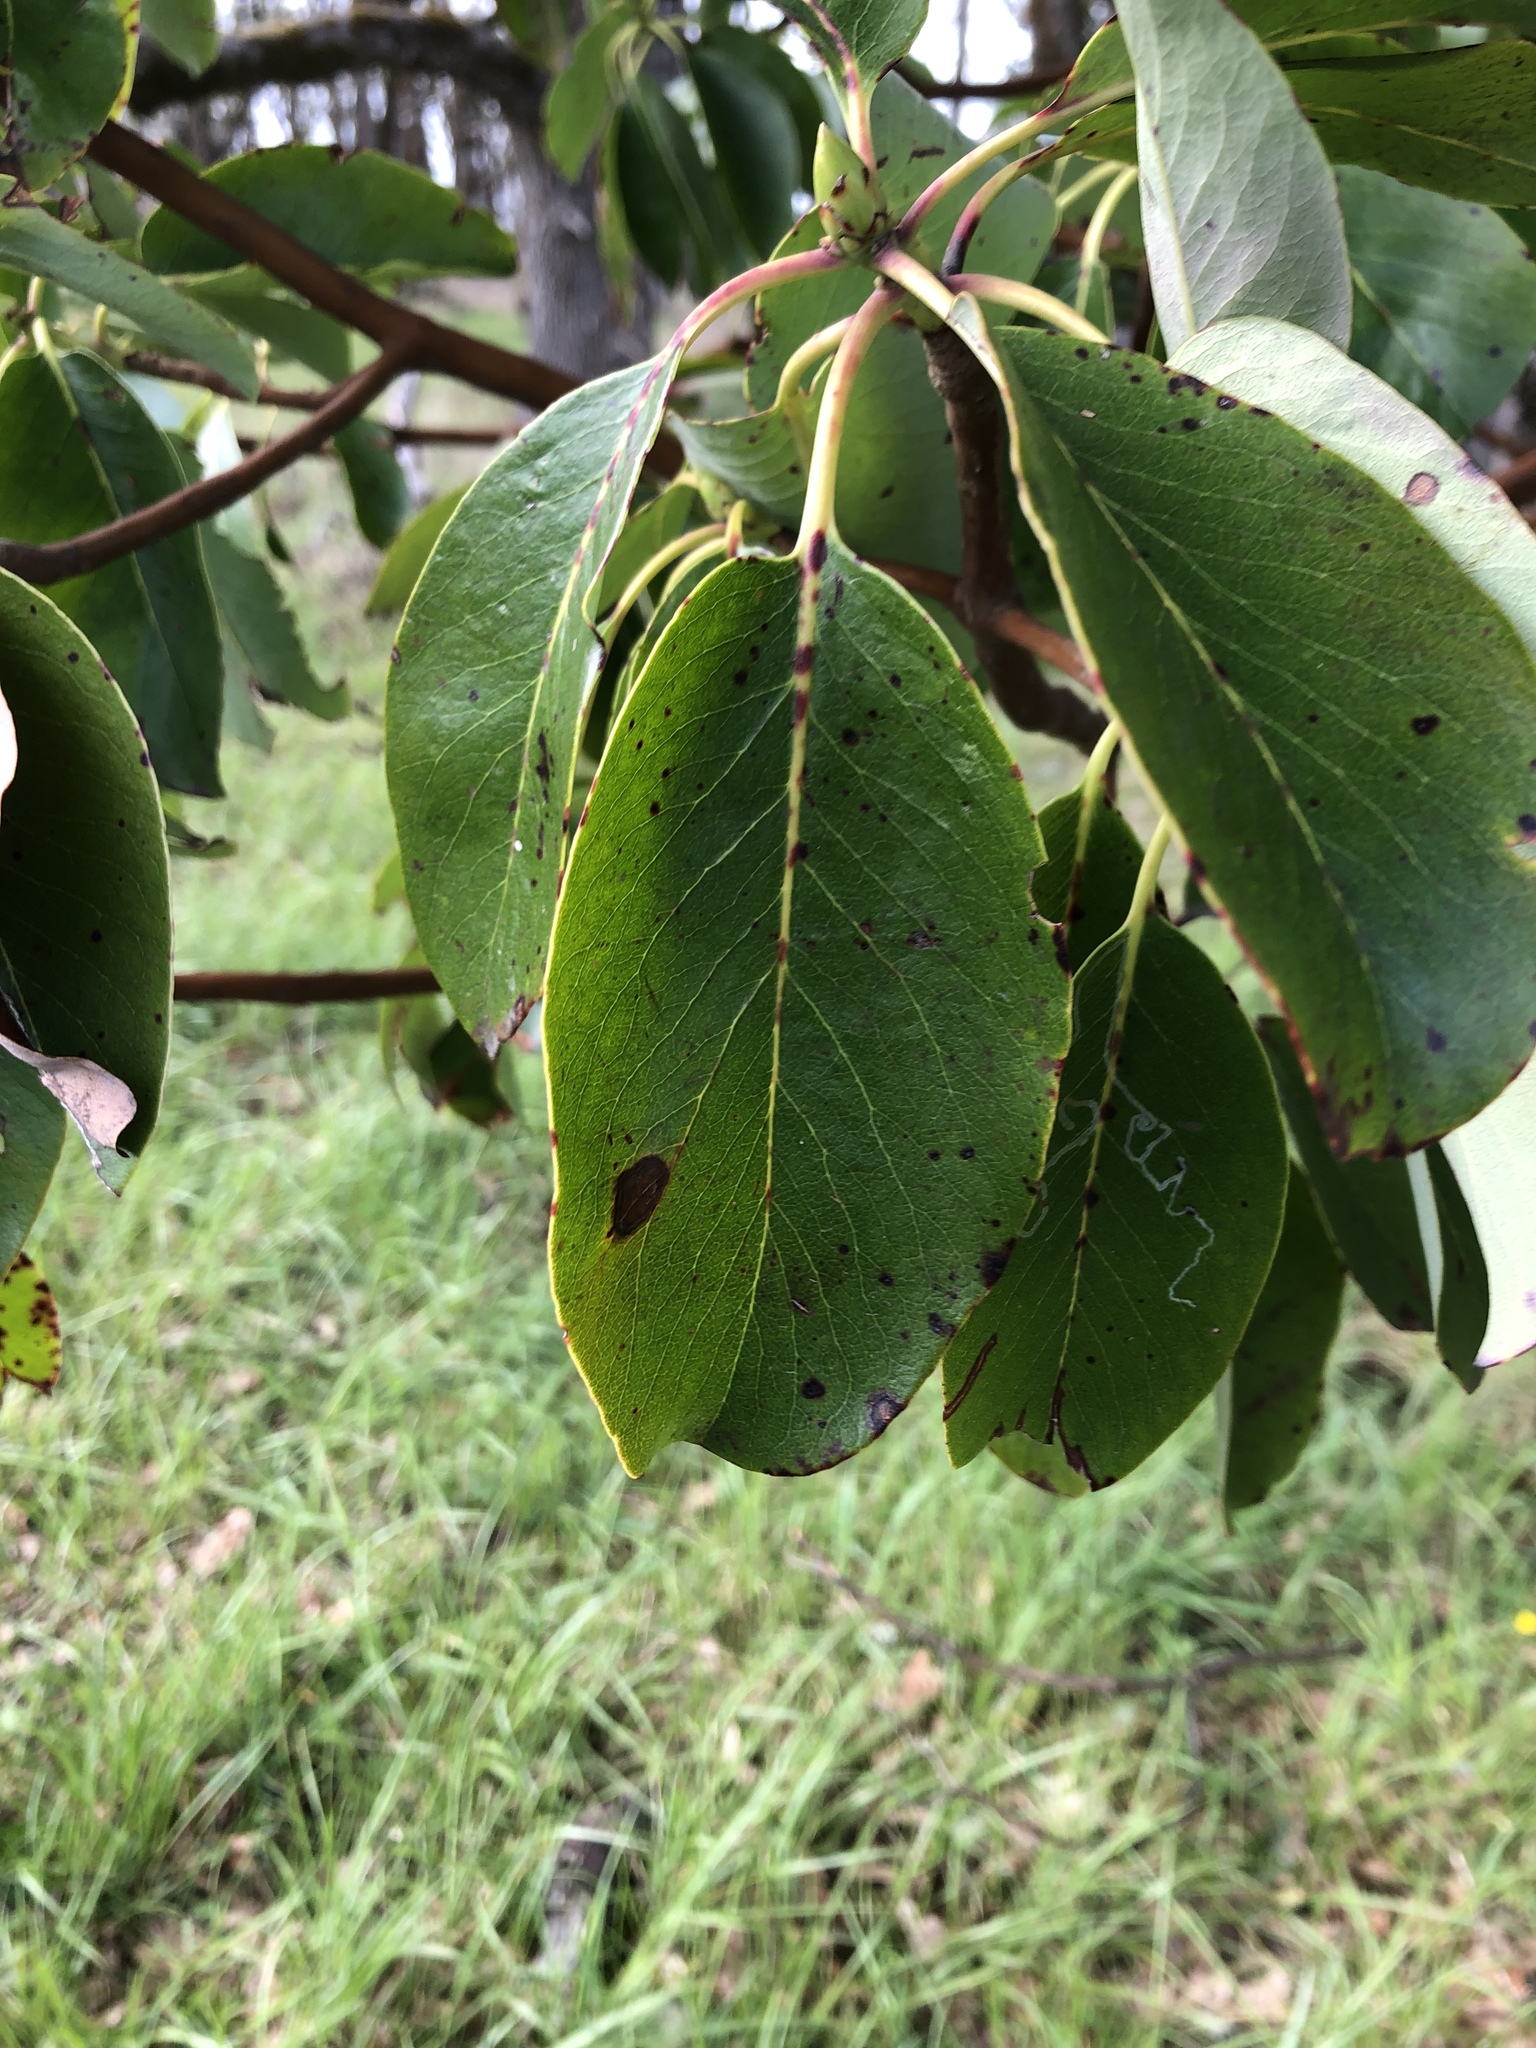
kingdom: Plantae
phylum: Tracheophyta
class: Magnoliopsida
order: Ericales
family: Ericaceae
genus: Arbutus
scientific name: Arbutus menziesii
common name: Pacific madrone
